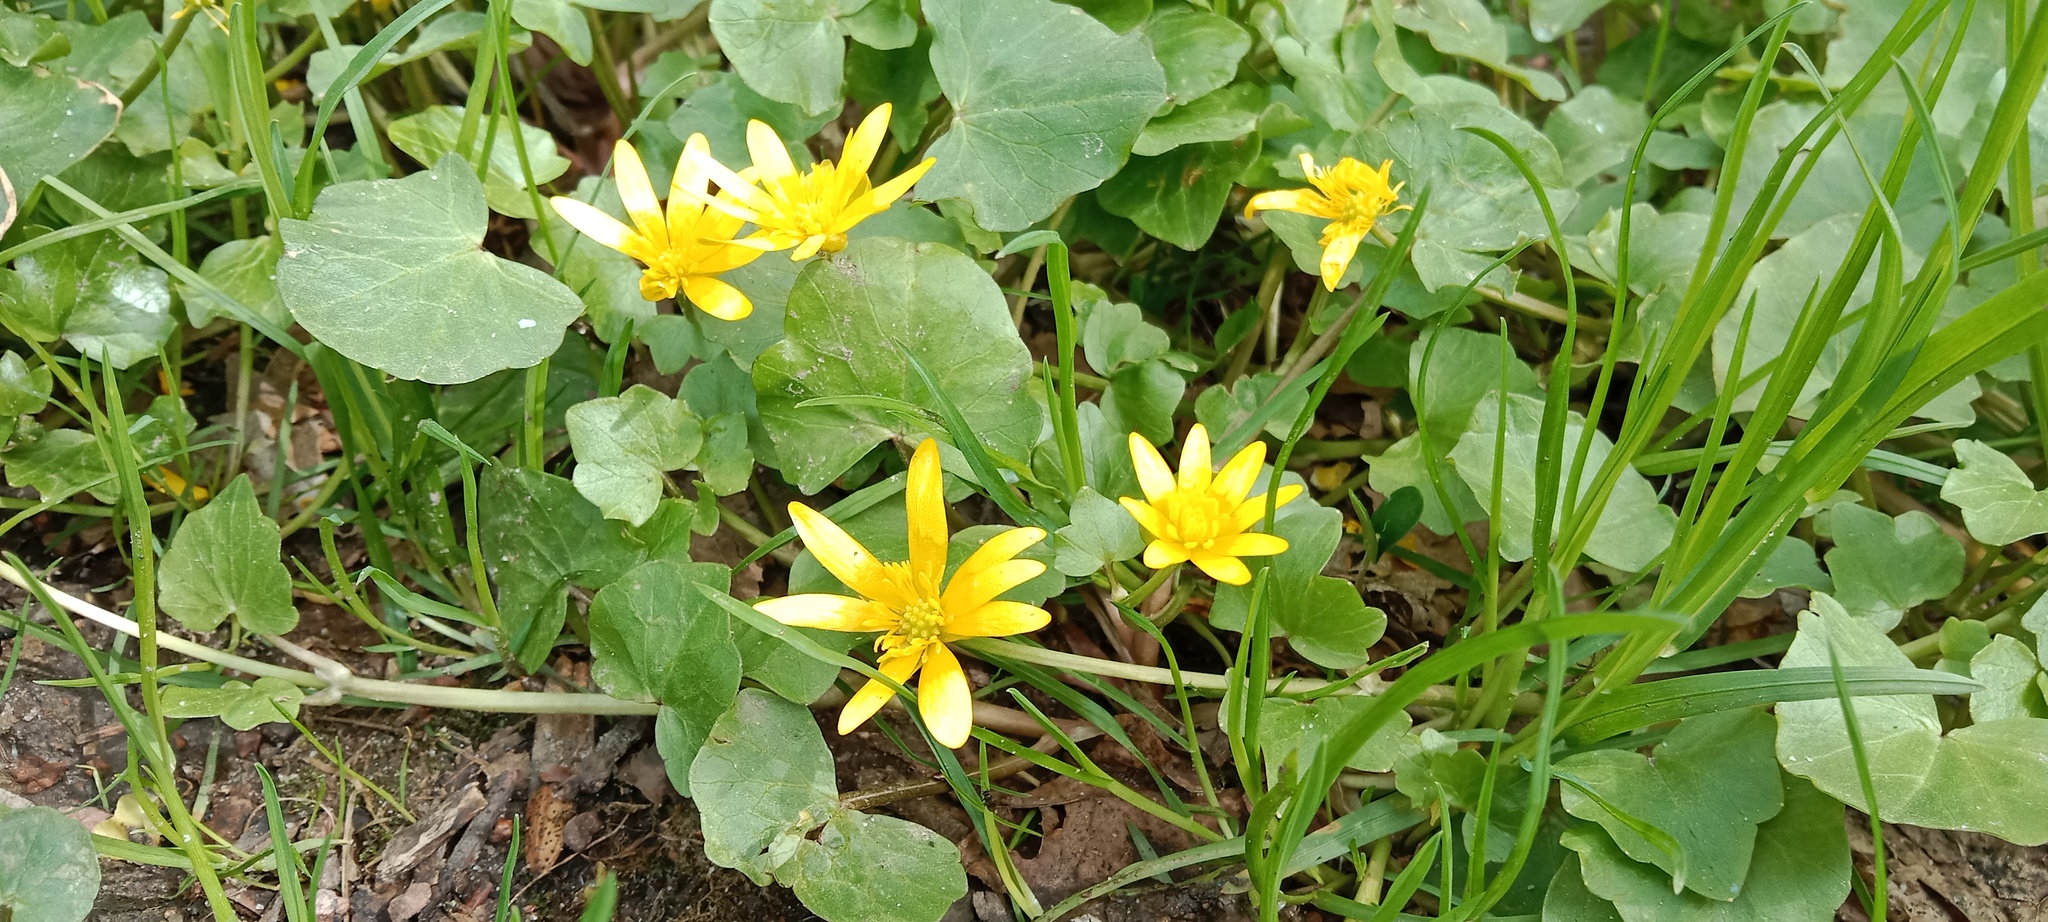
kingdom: Plantae
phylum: Tracheophyta
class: Magnoliopsida
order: Ranunculales
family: Ranunculaceae
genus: Ficaria
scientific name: Ficaria verna
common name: Lesser celandine
